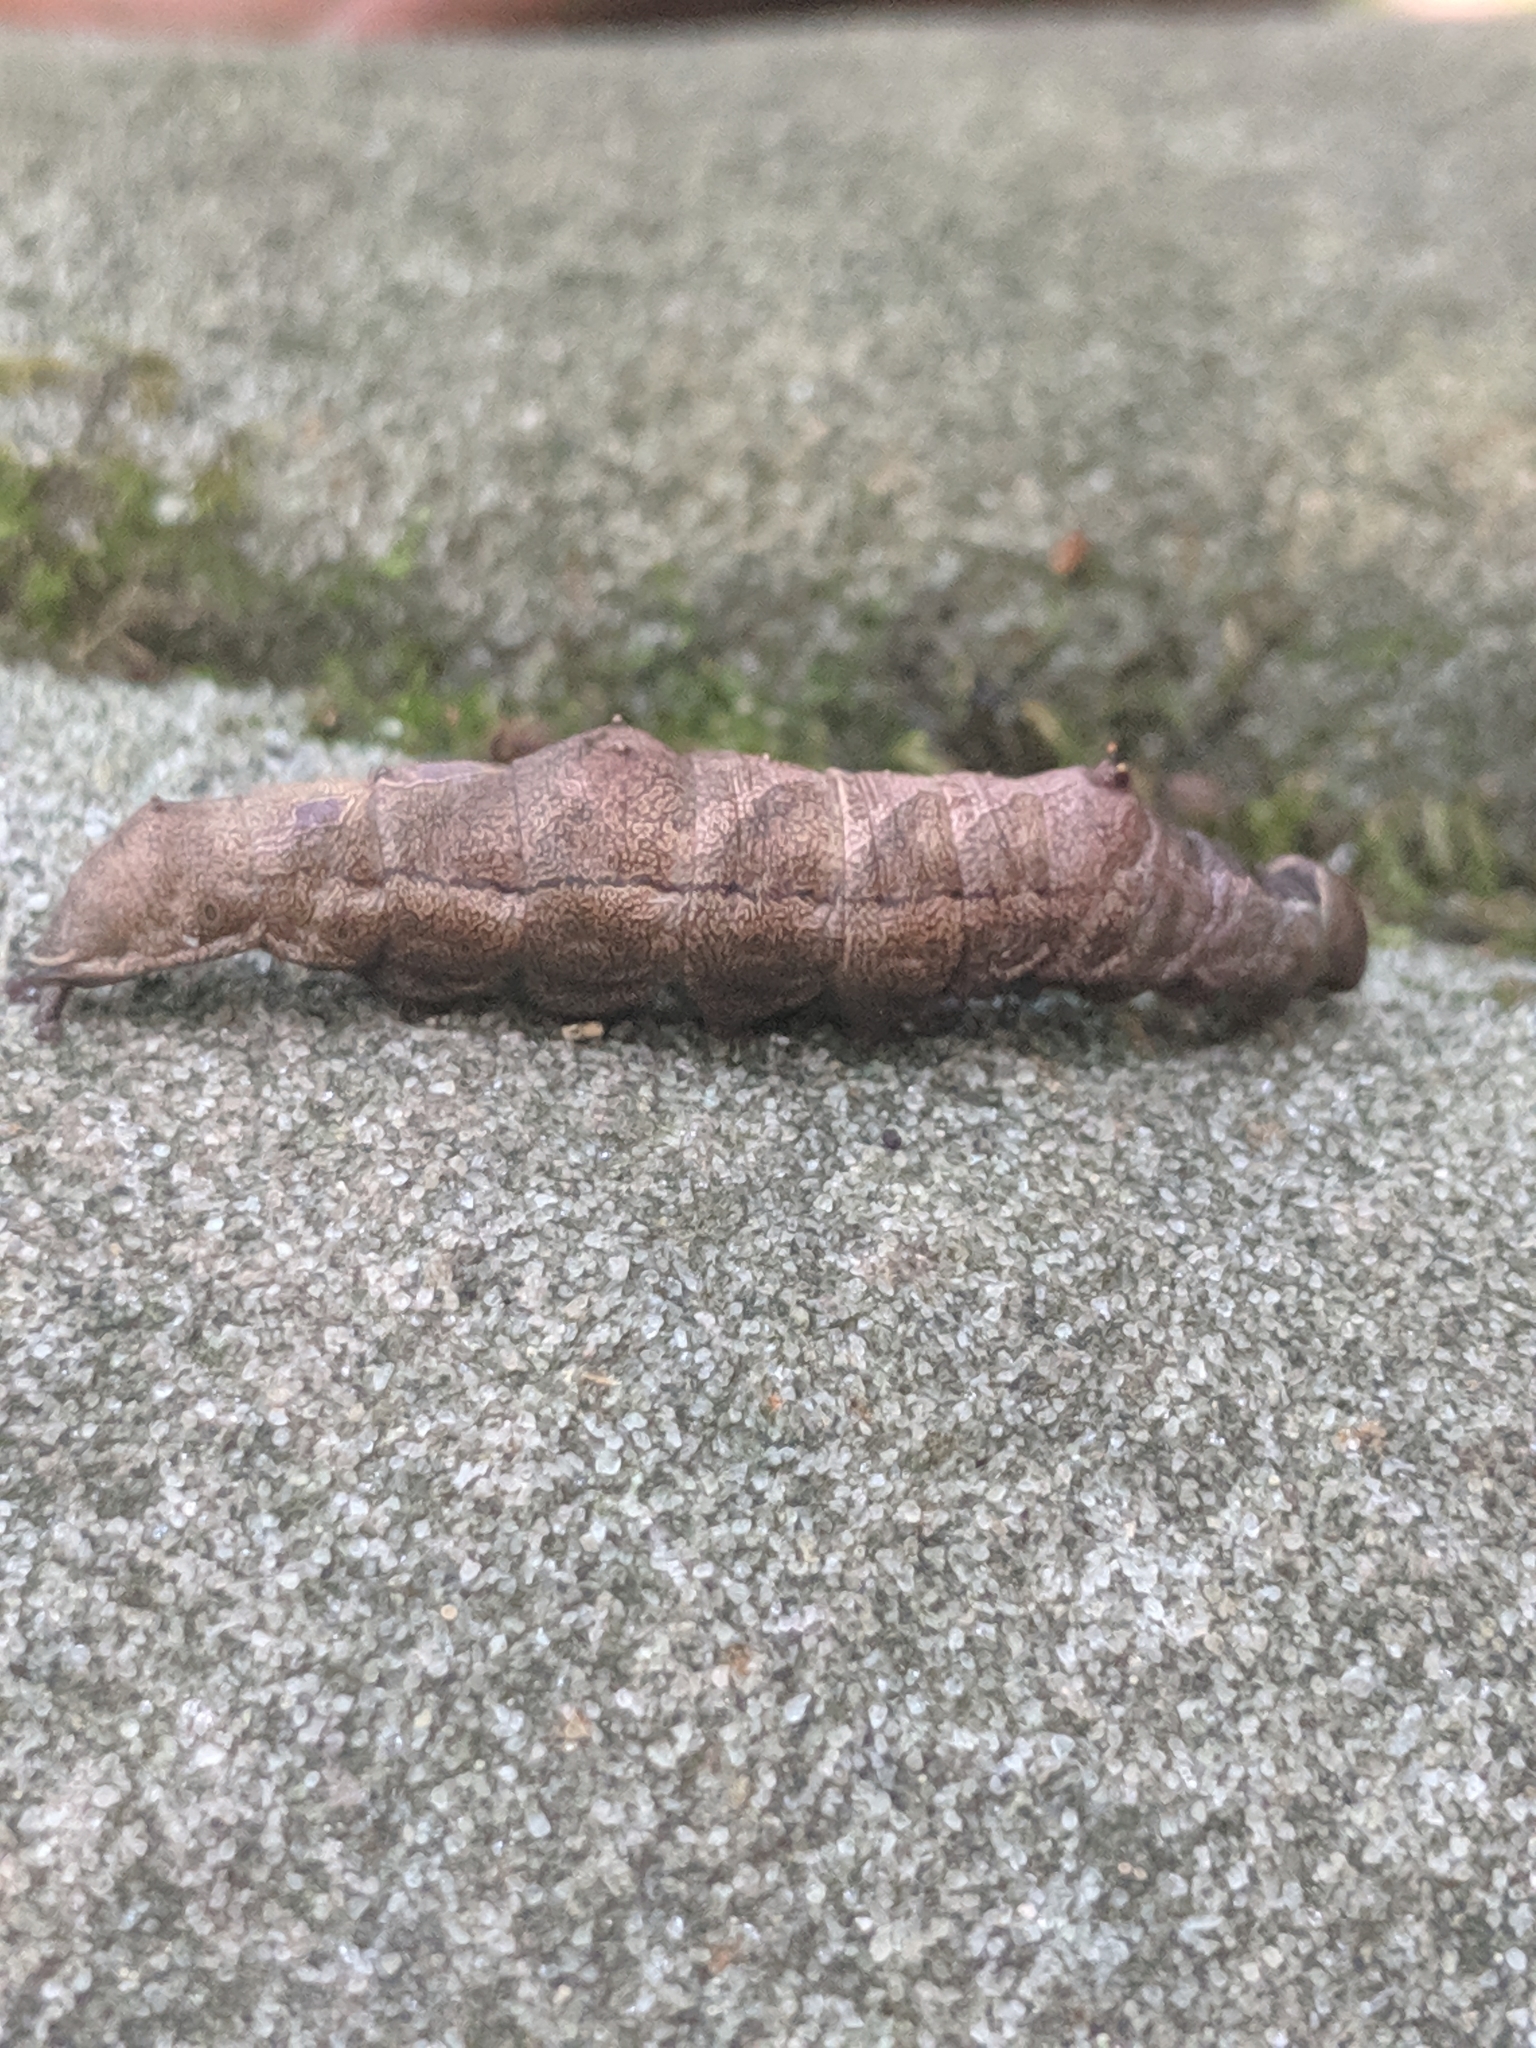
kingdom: Animalia
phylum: Arthropoda
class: Insecta
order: Lepidoptera
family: Notodontidae
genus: Schizura
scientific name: Schizura
